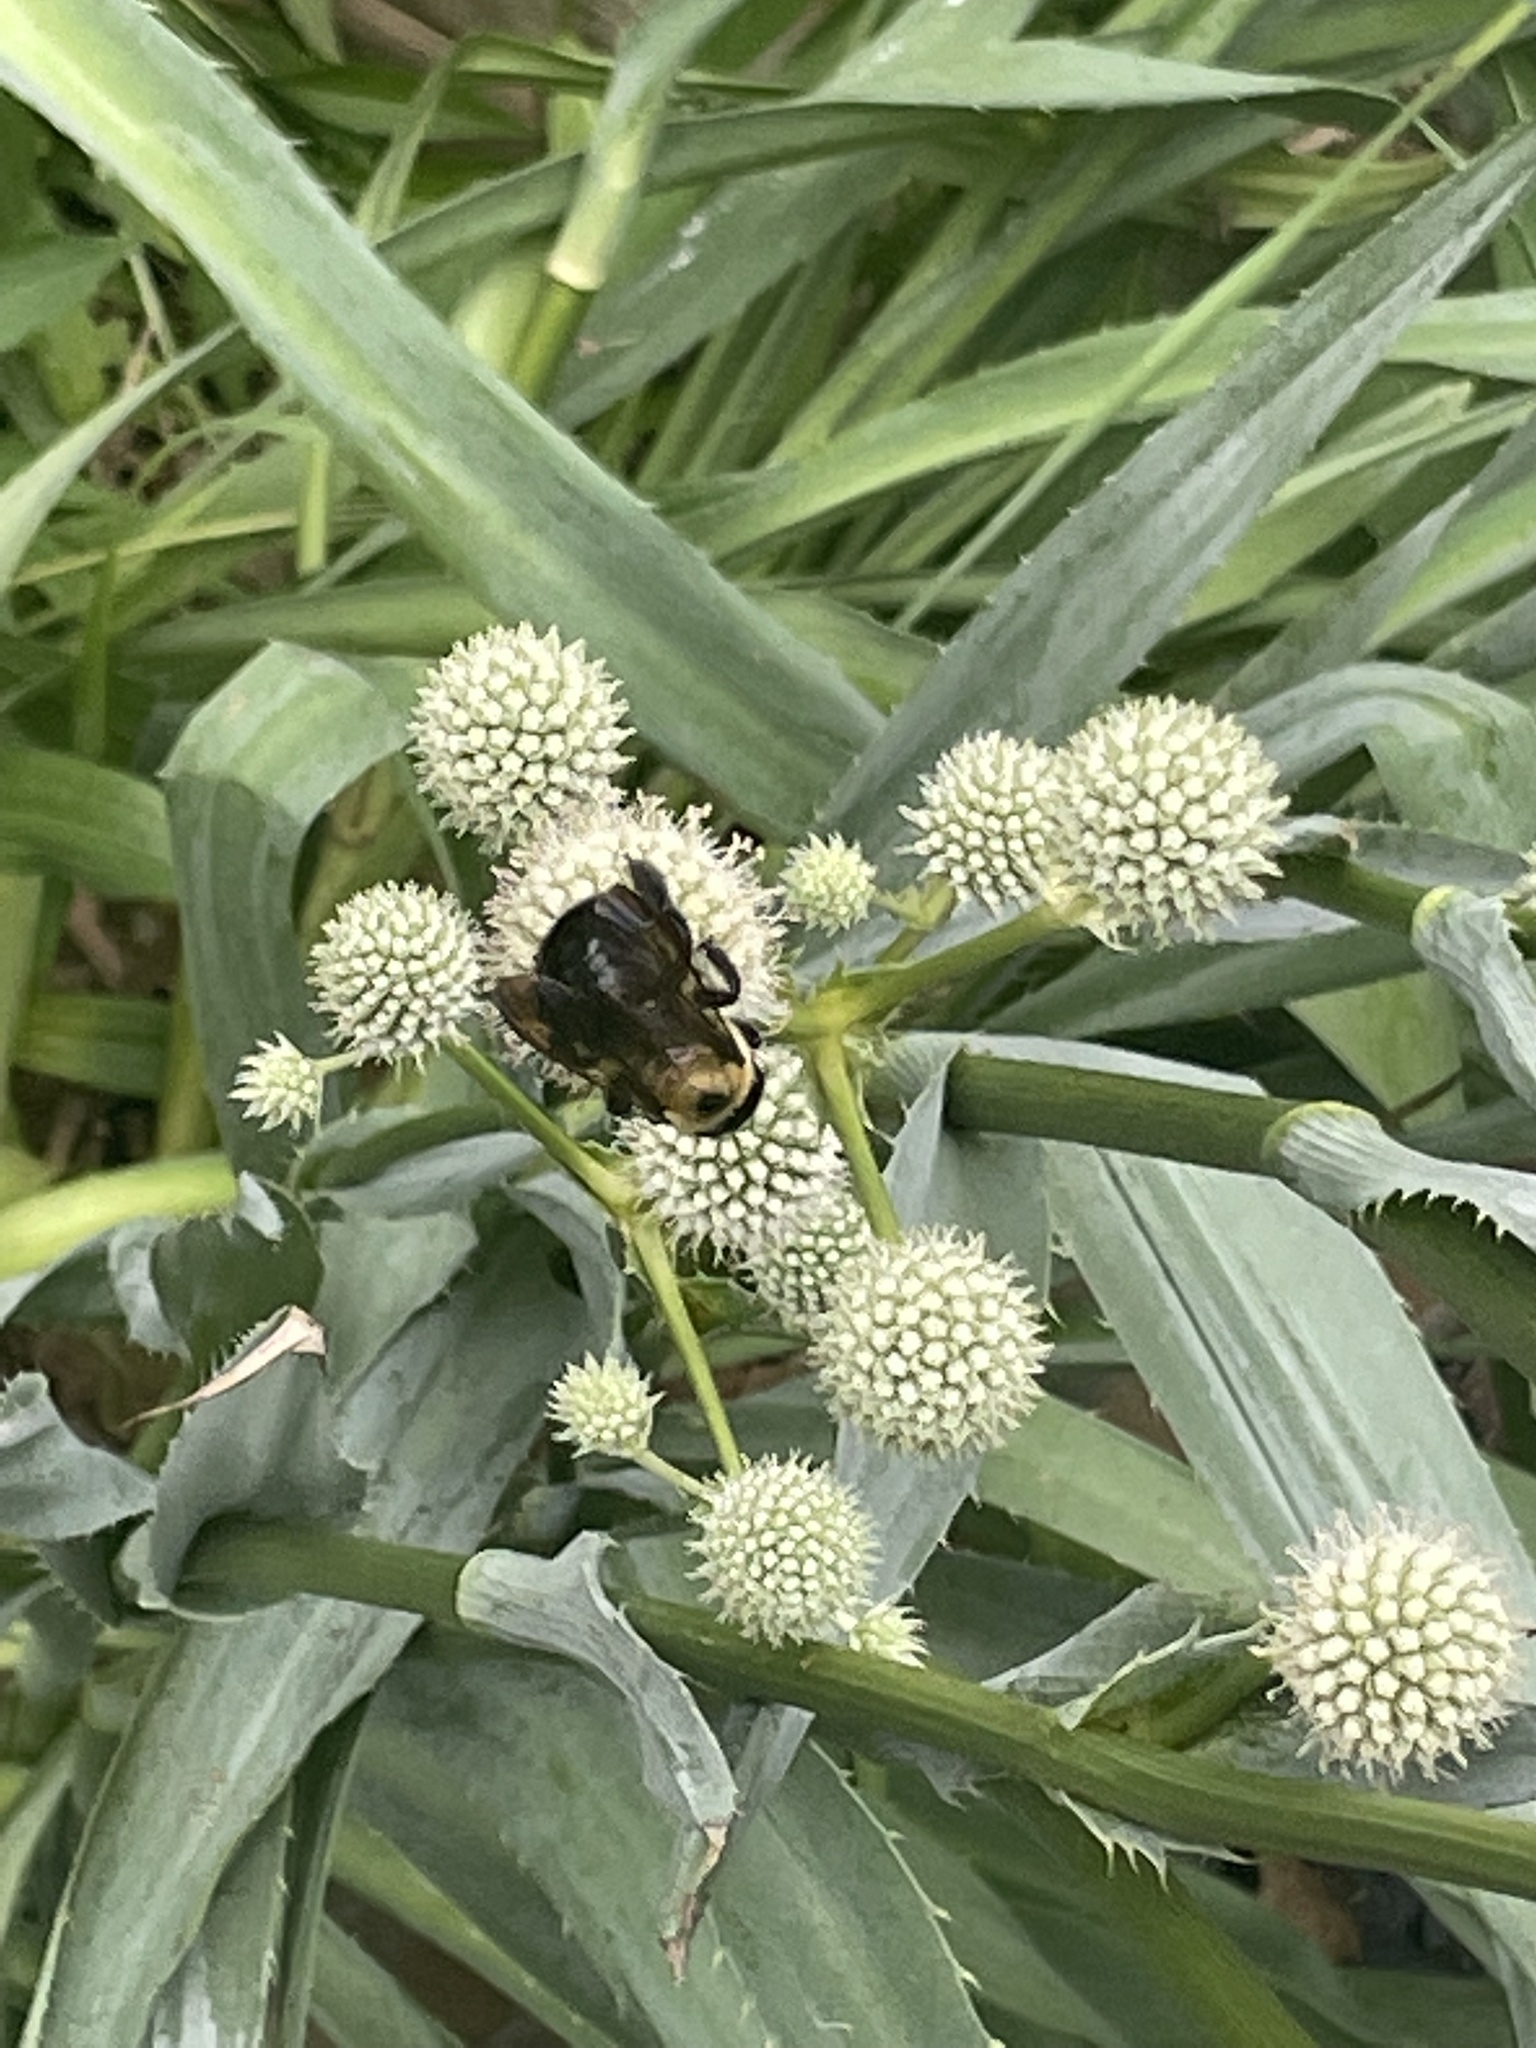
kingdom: Animalia
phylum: Arthropoda
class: Insecta
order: Hymenoptera
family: Apidae
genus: Xylocopa
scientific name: Xylocopa virginica
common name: Carpenter bee
